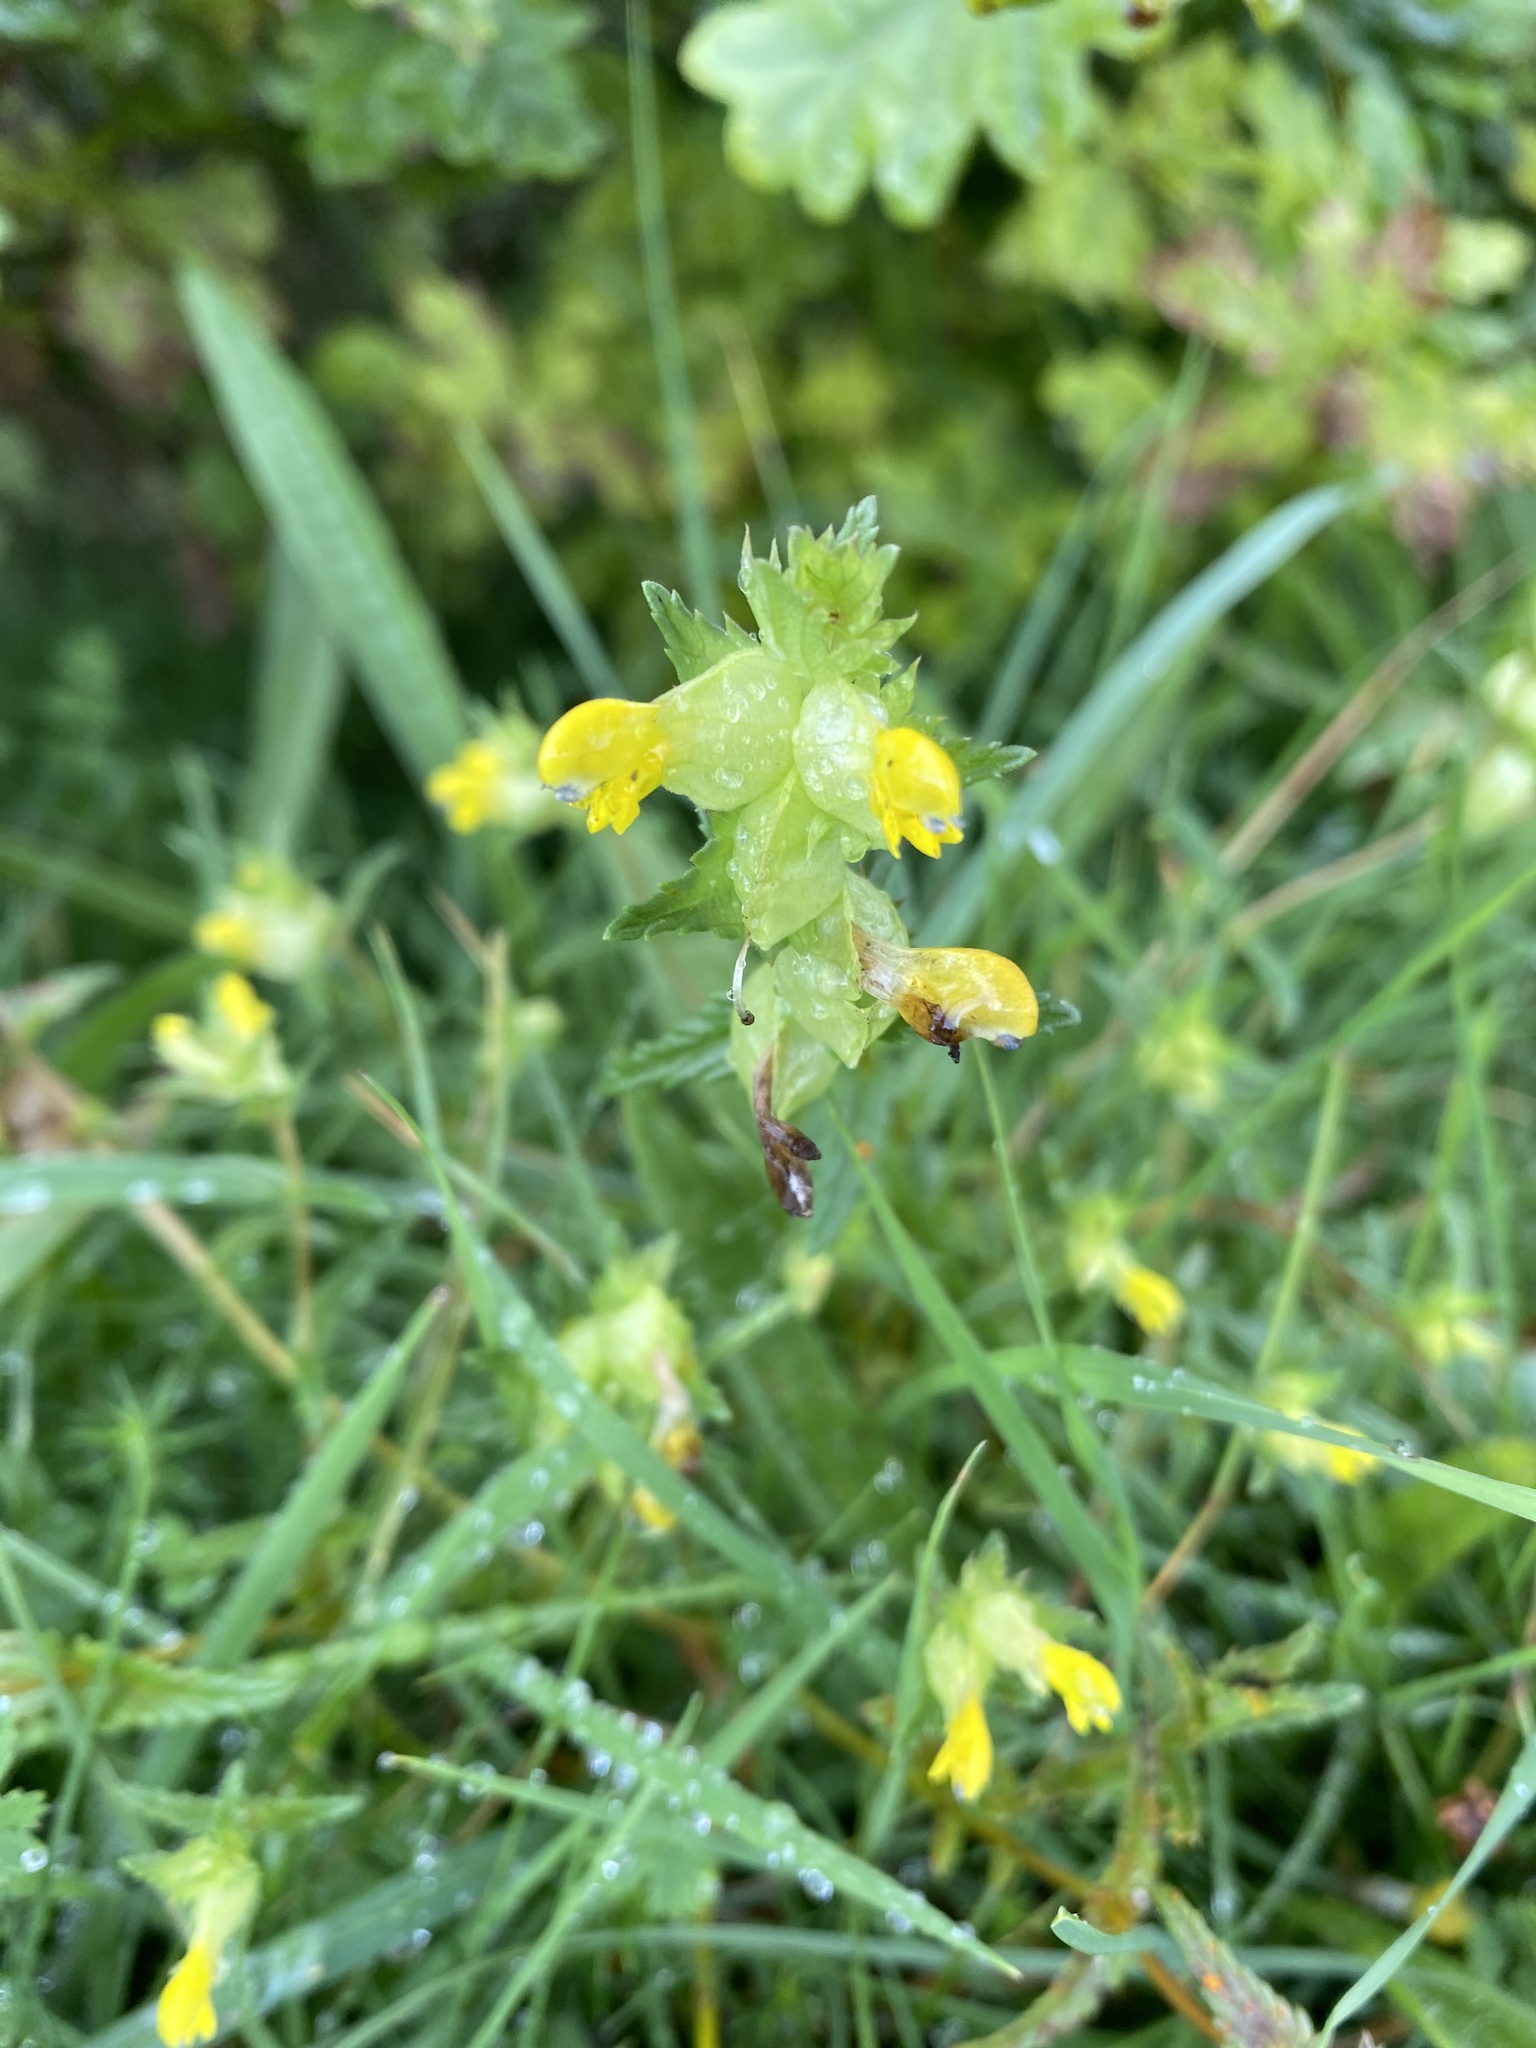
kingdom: Plantae
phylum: Tracheophyta
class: Magnoliopsida
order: Lamiales
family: Orobanchaceae
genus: Rhinanthus
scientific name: Rhinanthus minor
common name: Yellow-rattle
